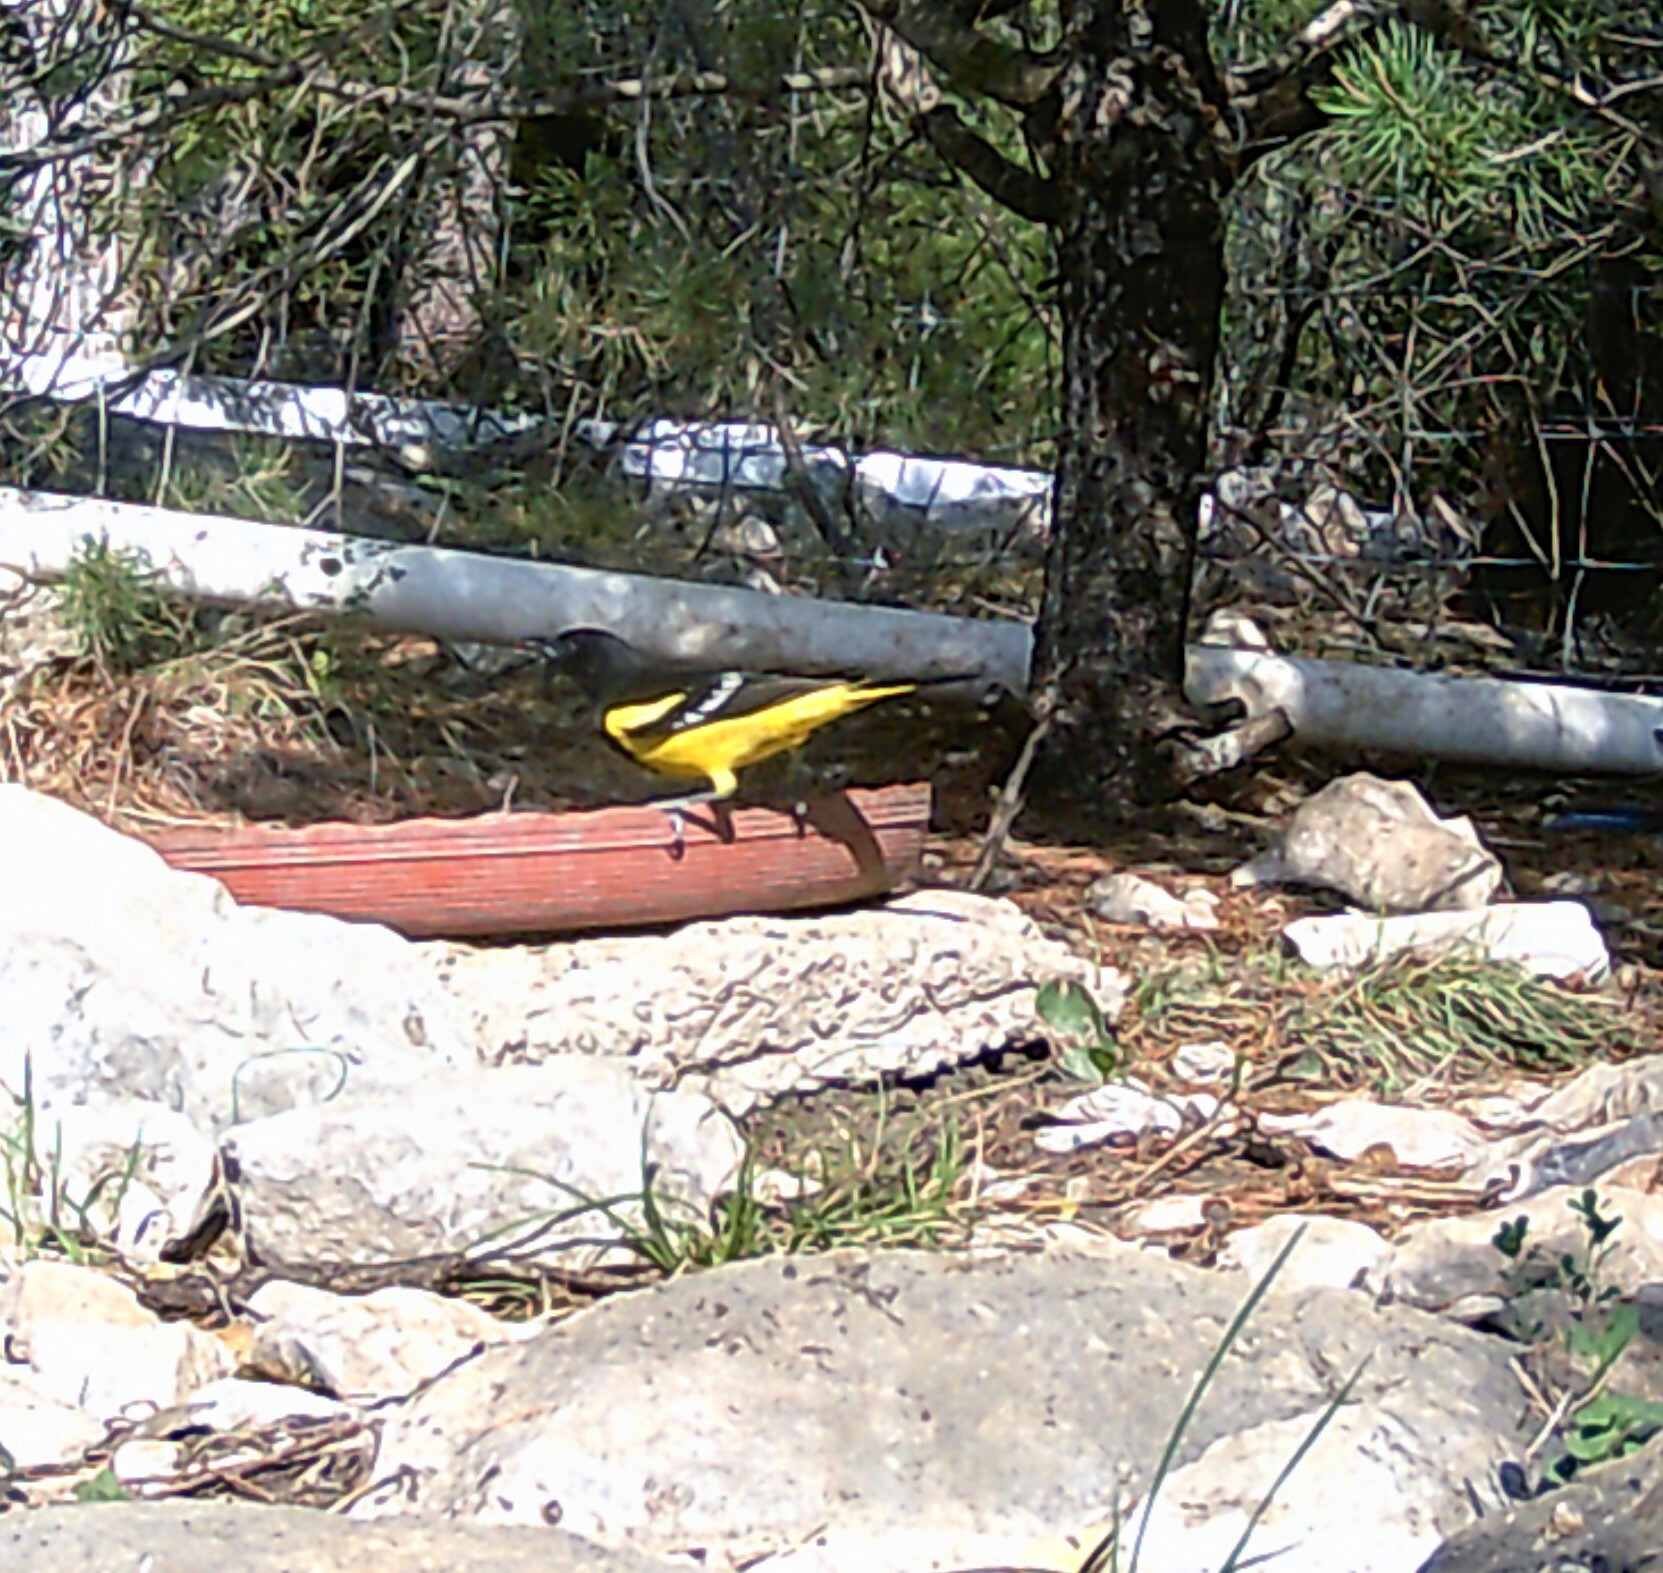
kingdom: Animalia
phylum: Chordata
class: Aves
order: Passeriformes
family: Icteridae
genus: Icterus
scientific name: Icterus parisorum
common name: Scott's oriole
